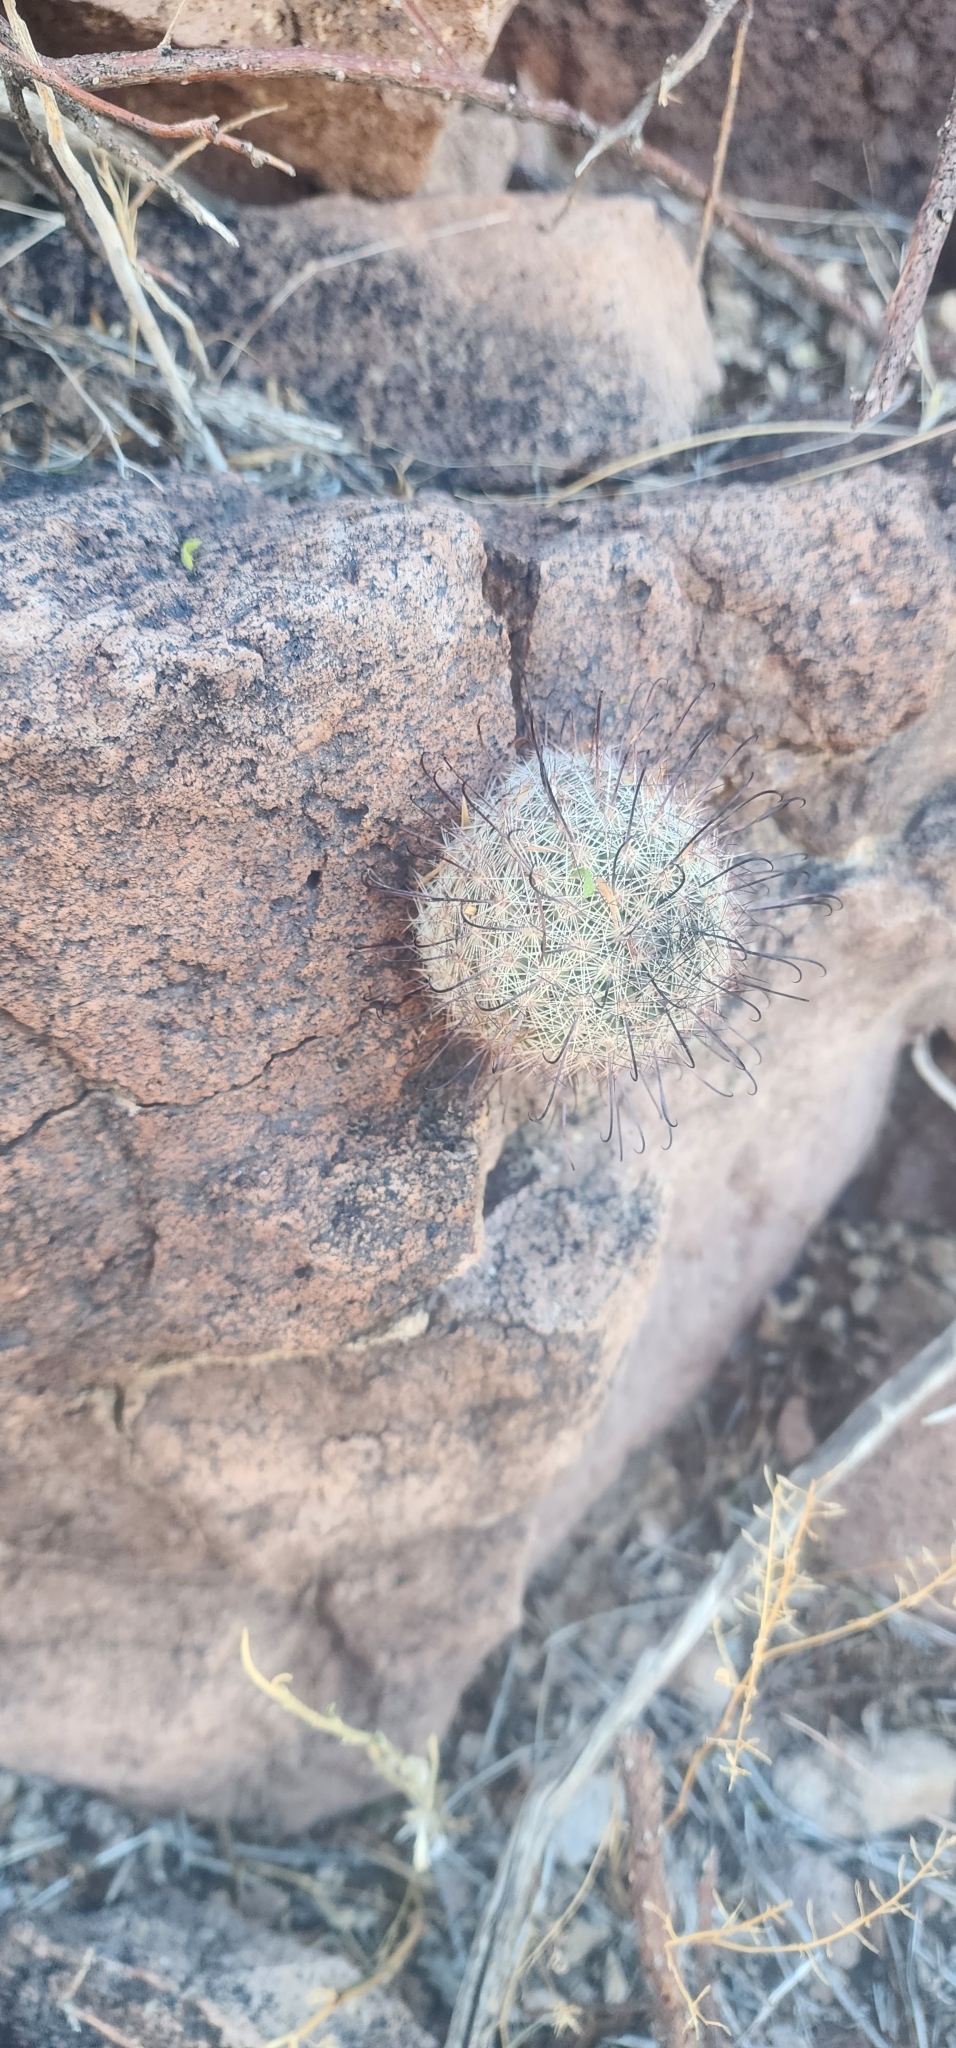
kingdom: Plantae
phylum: Tracheophyta
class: Magnoliopsida
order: Caryophyllales
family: Cactaceae
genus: Cochemiea
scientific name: Cochemiea grahamii
